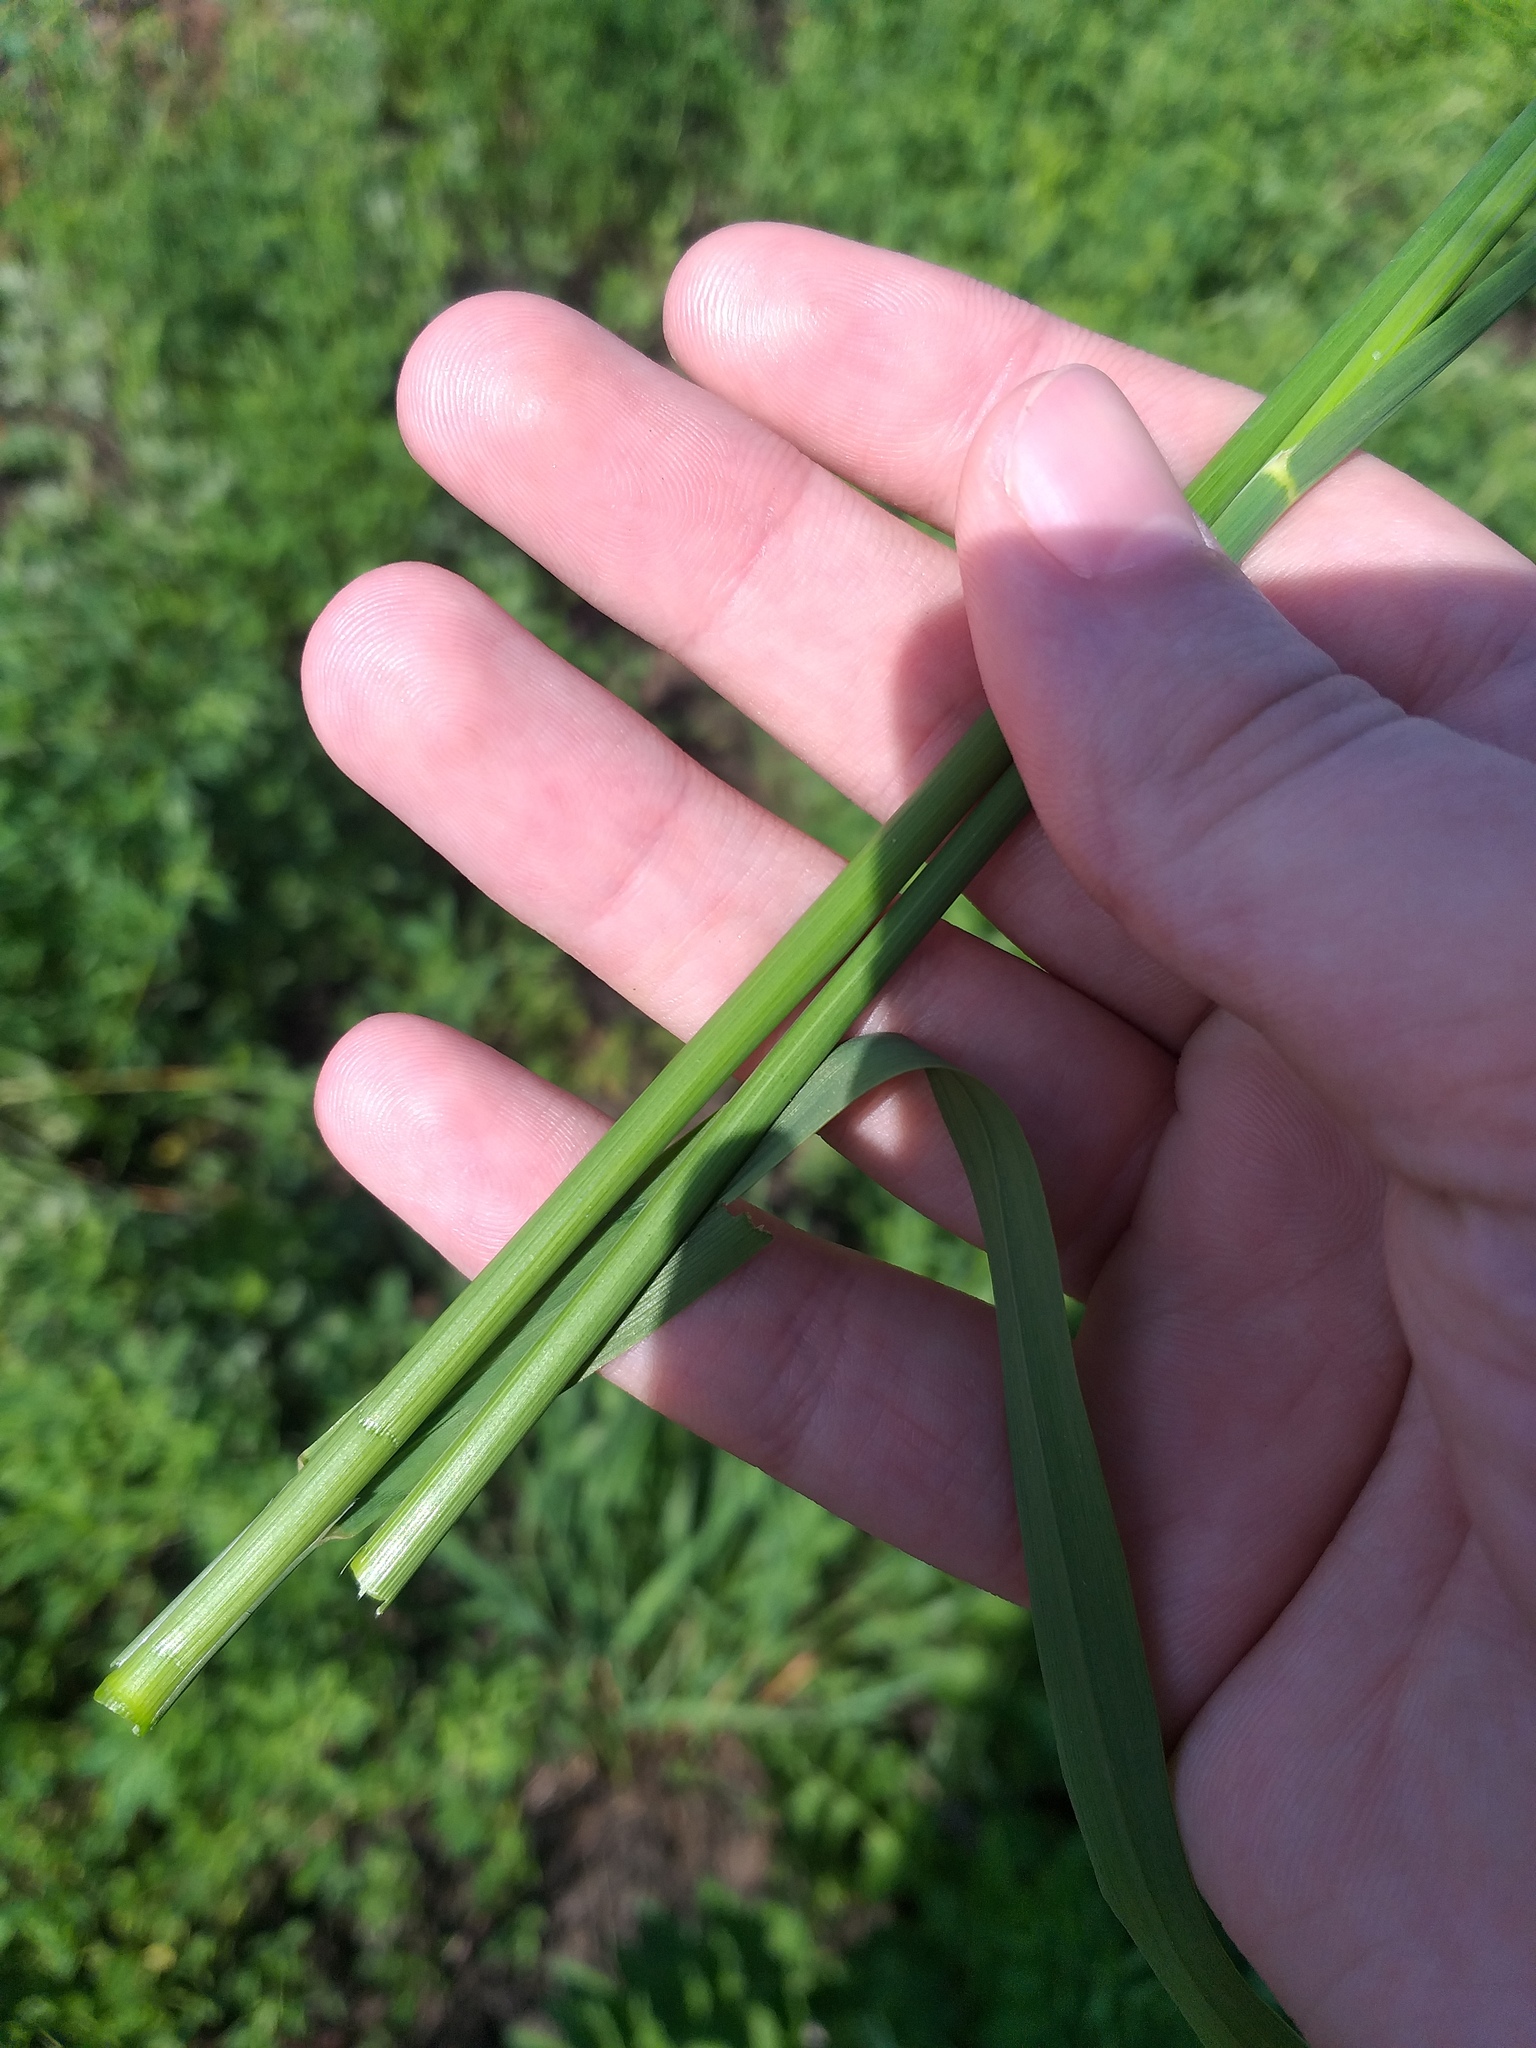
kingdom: Plantae
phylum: Tracheophyta
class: Liliopsida
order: Poales
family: Poaceae
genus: Arrhenatherum
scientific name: Arrhenatherum elatius
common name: Tall oatgrass
